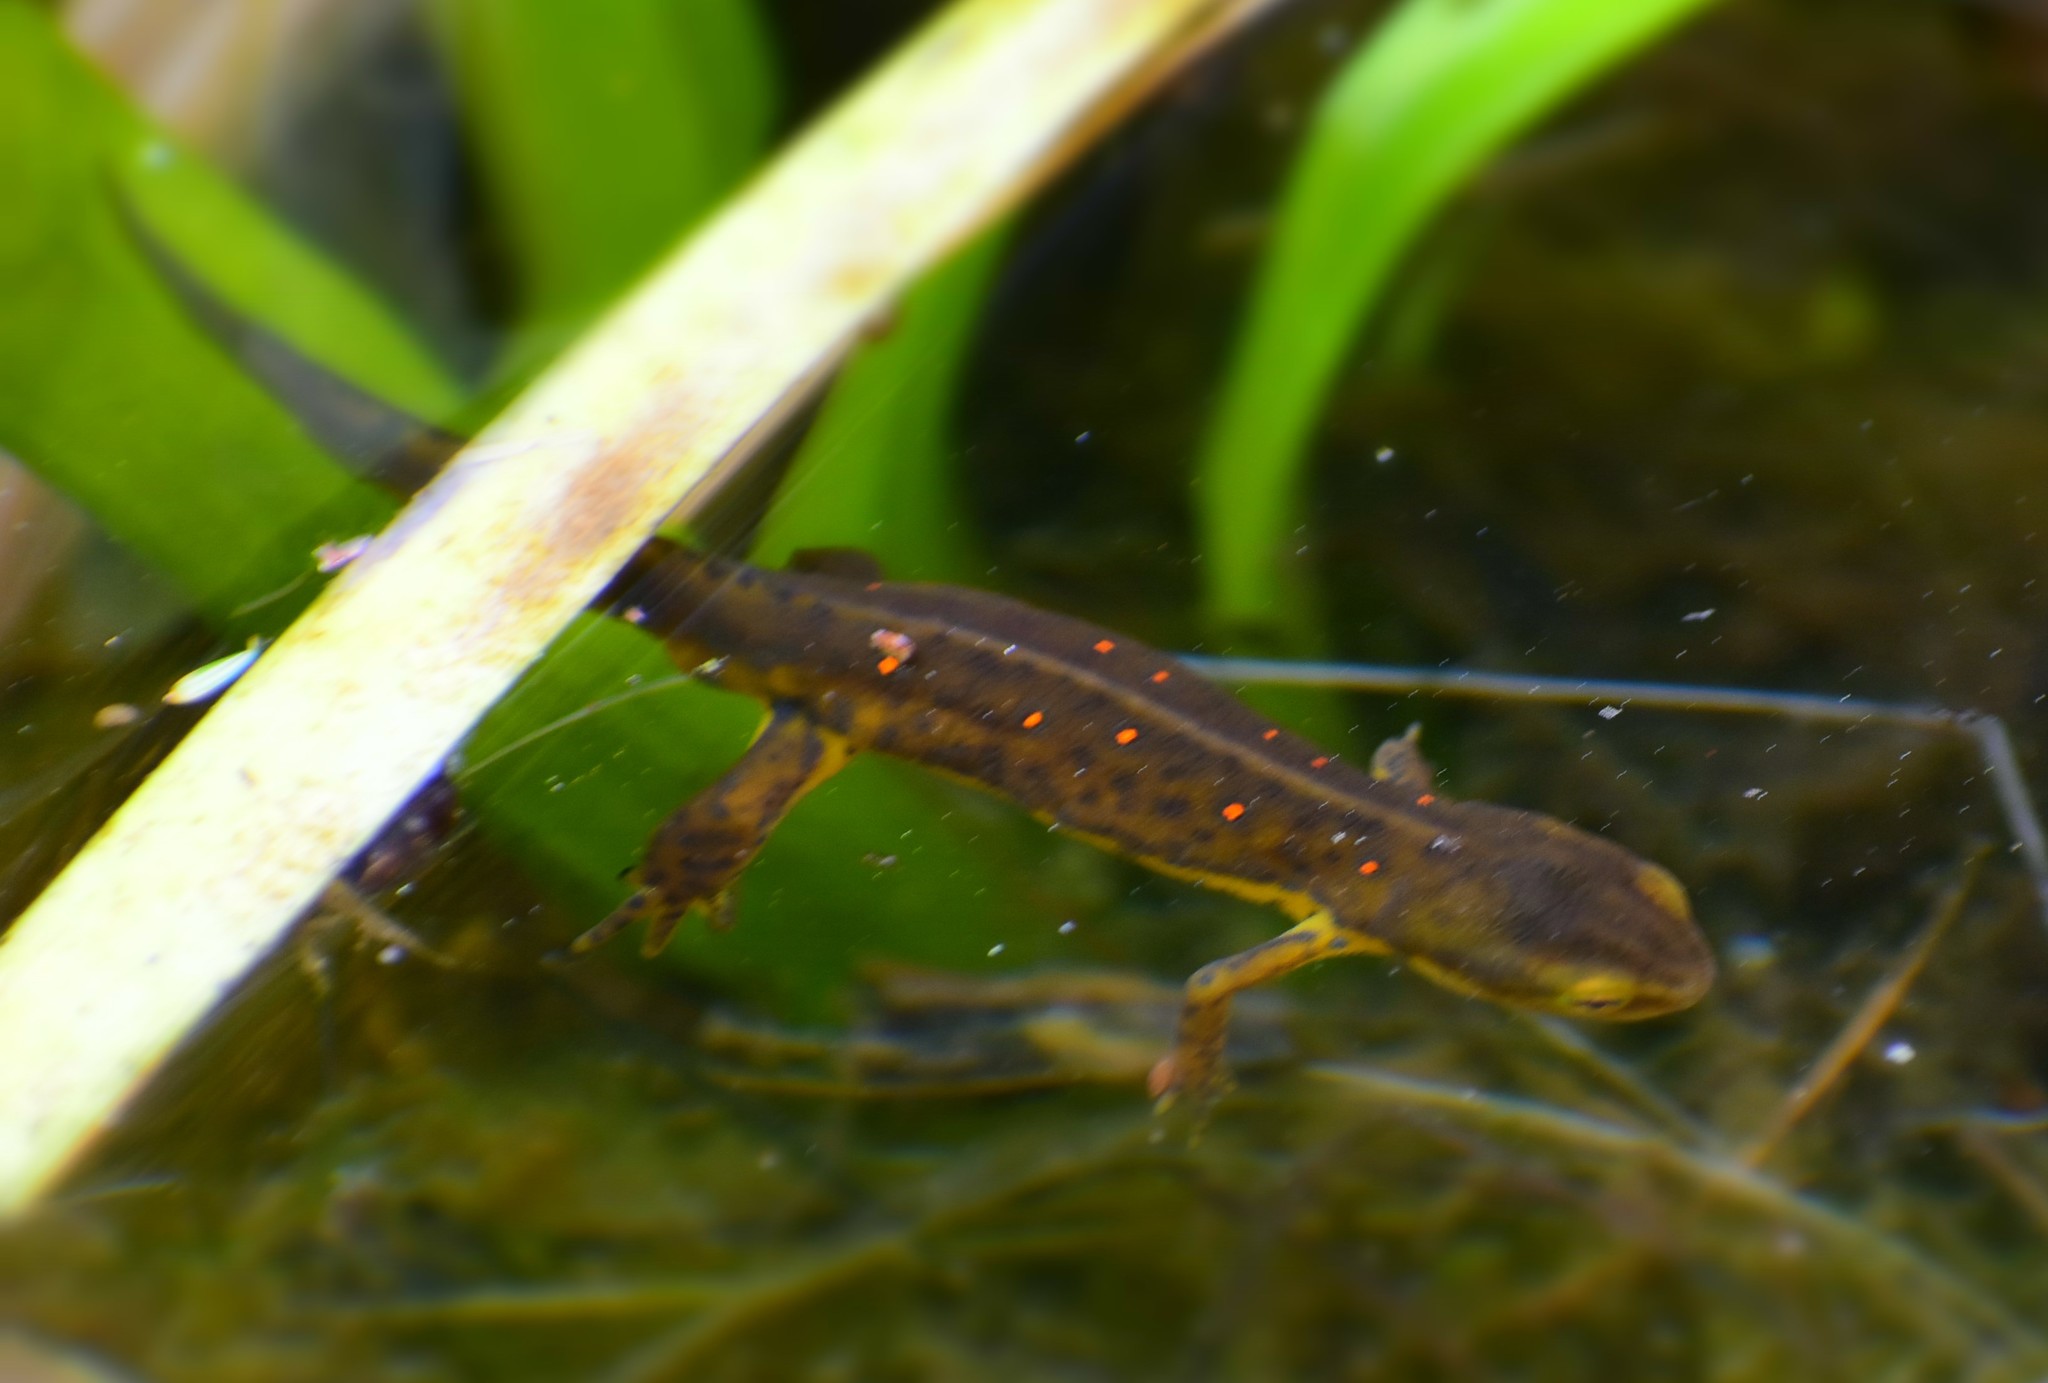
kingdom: Animalia
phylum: Chordata
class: Amphibia
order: Caudata
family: Salamandridae
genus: Notophthalmus
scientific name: Notophthalmus viridescens
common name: Eastern newt
